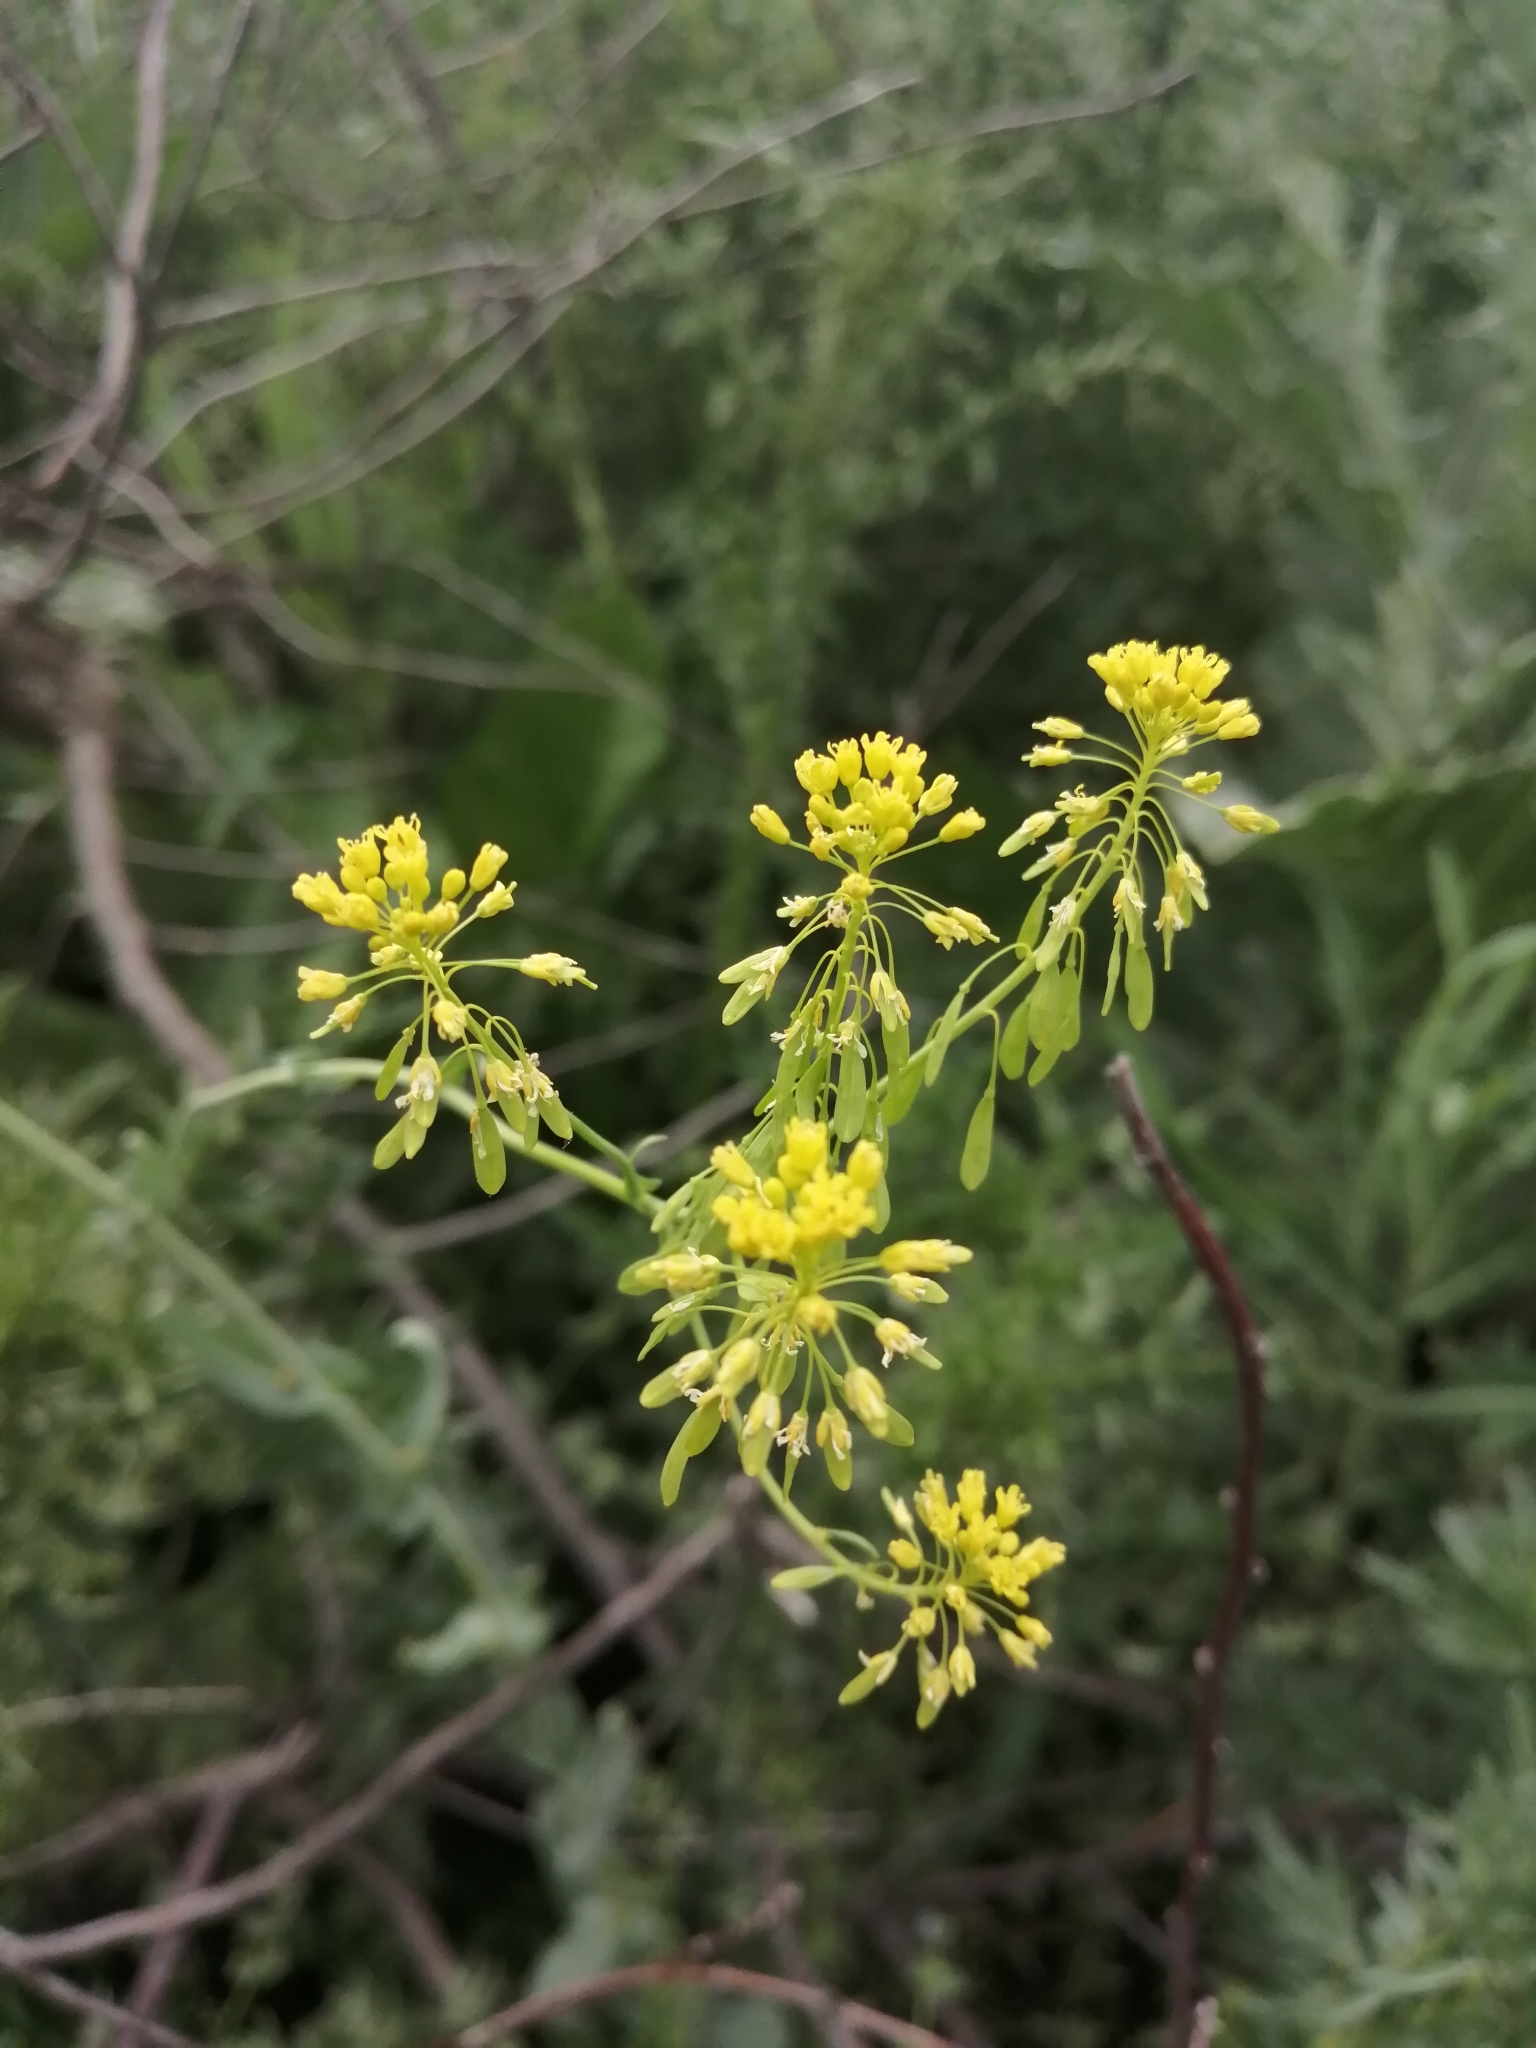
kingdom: Plantae
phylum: Tracheophyta
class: Magnoliopsida
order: Brassicales
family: Brassicaceae
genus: Isatis
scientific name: Isatis tinctoria
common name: Woad
